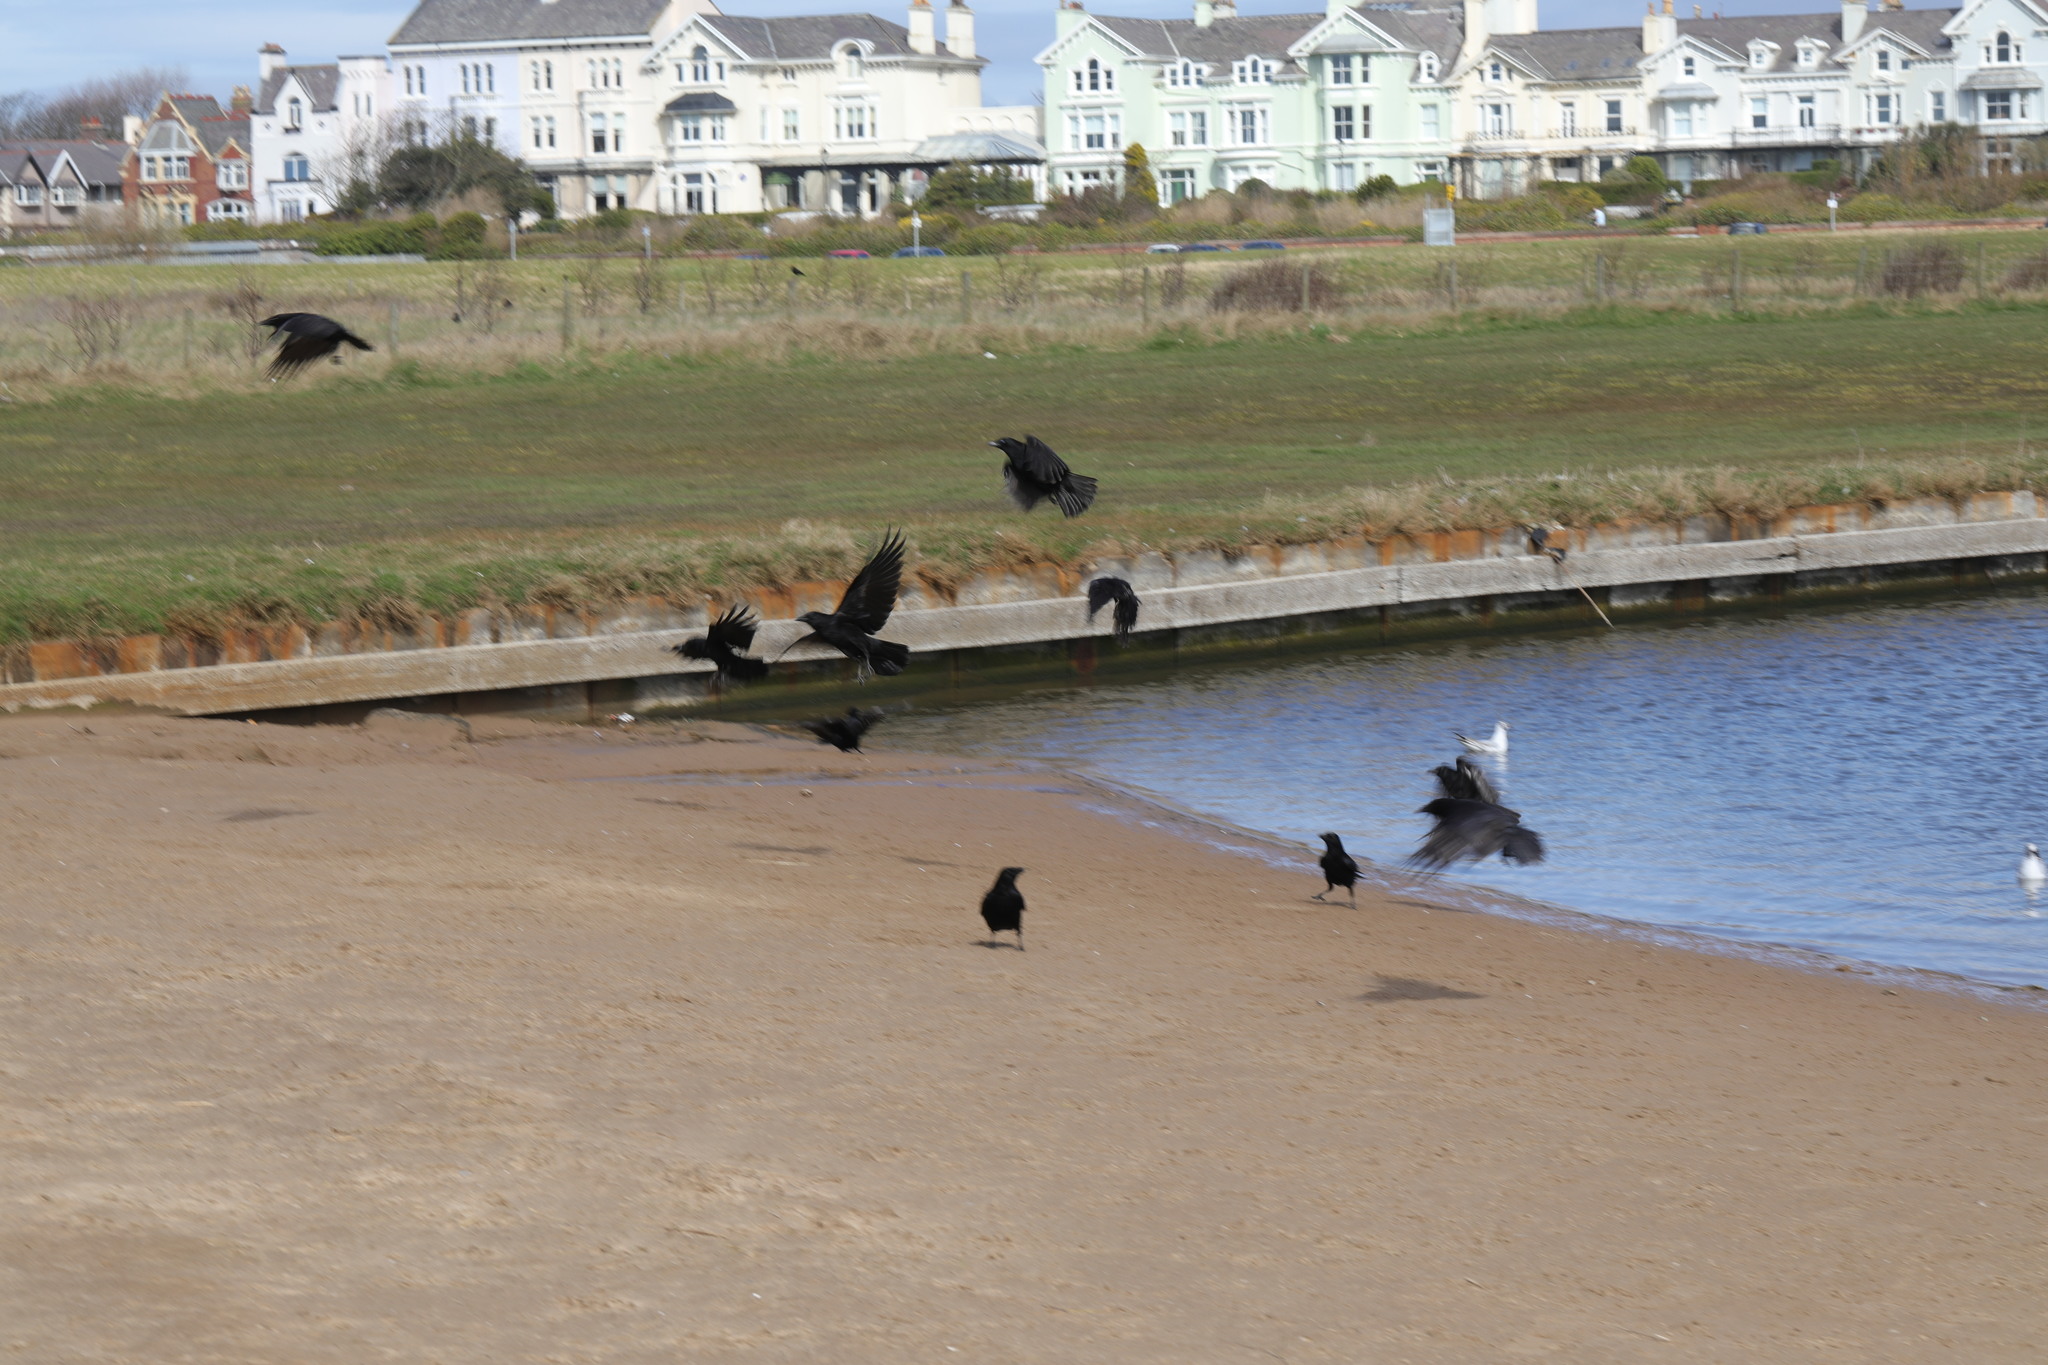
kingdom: Animalia
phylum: Chordata
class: Aves
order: Passeriformes
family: Corvidae
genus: Corvus
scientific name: Corvus corone
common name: Carrion crow
